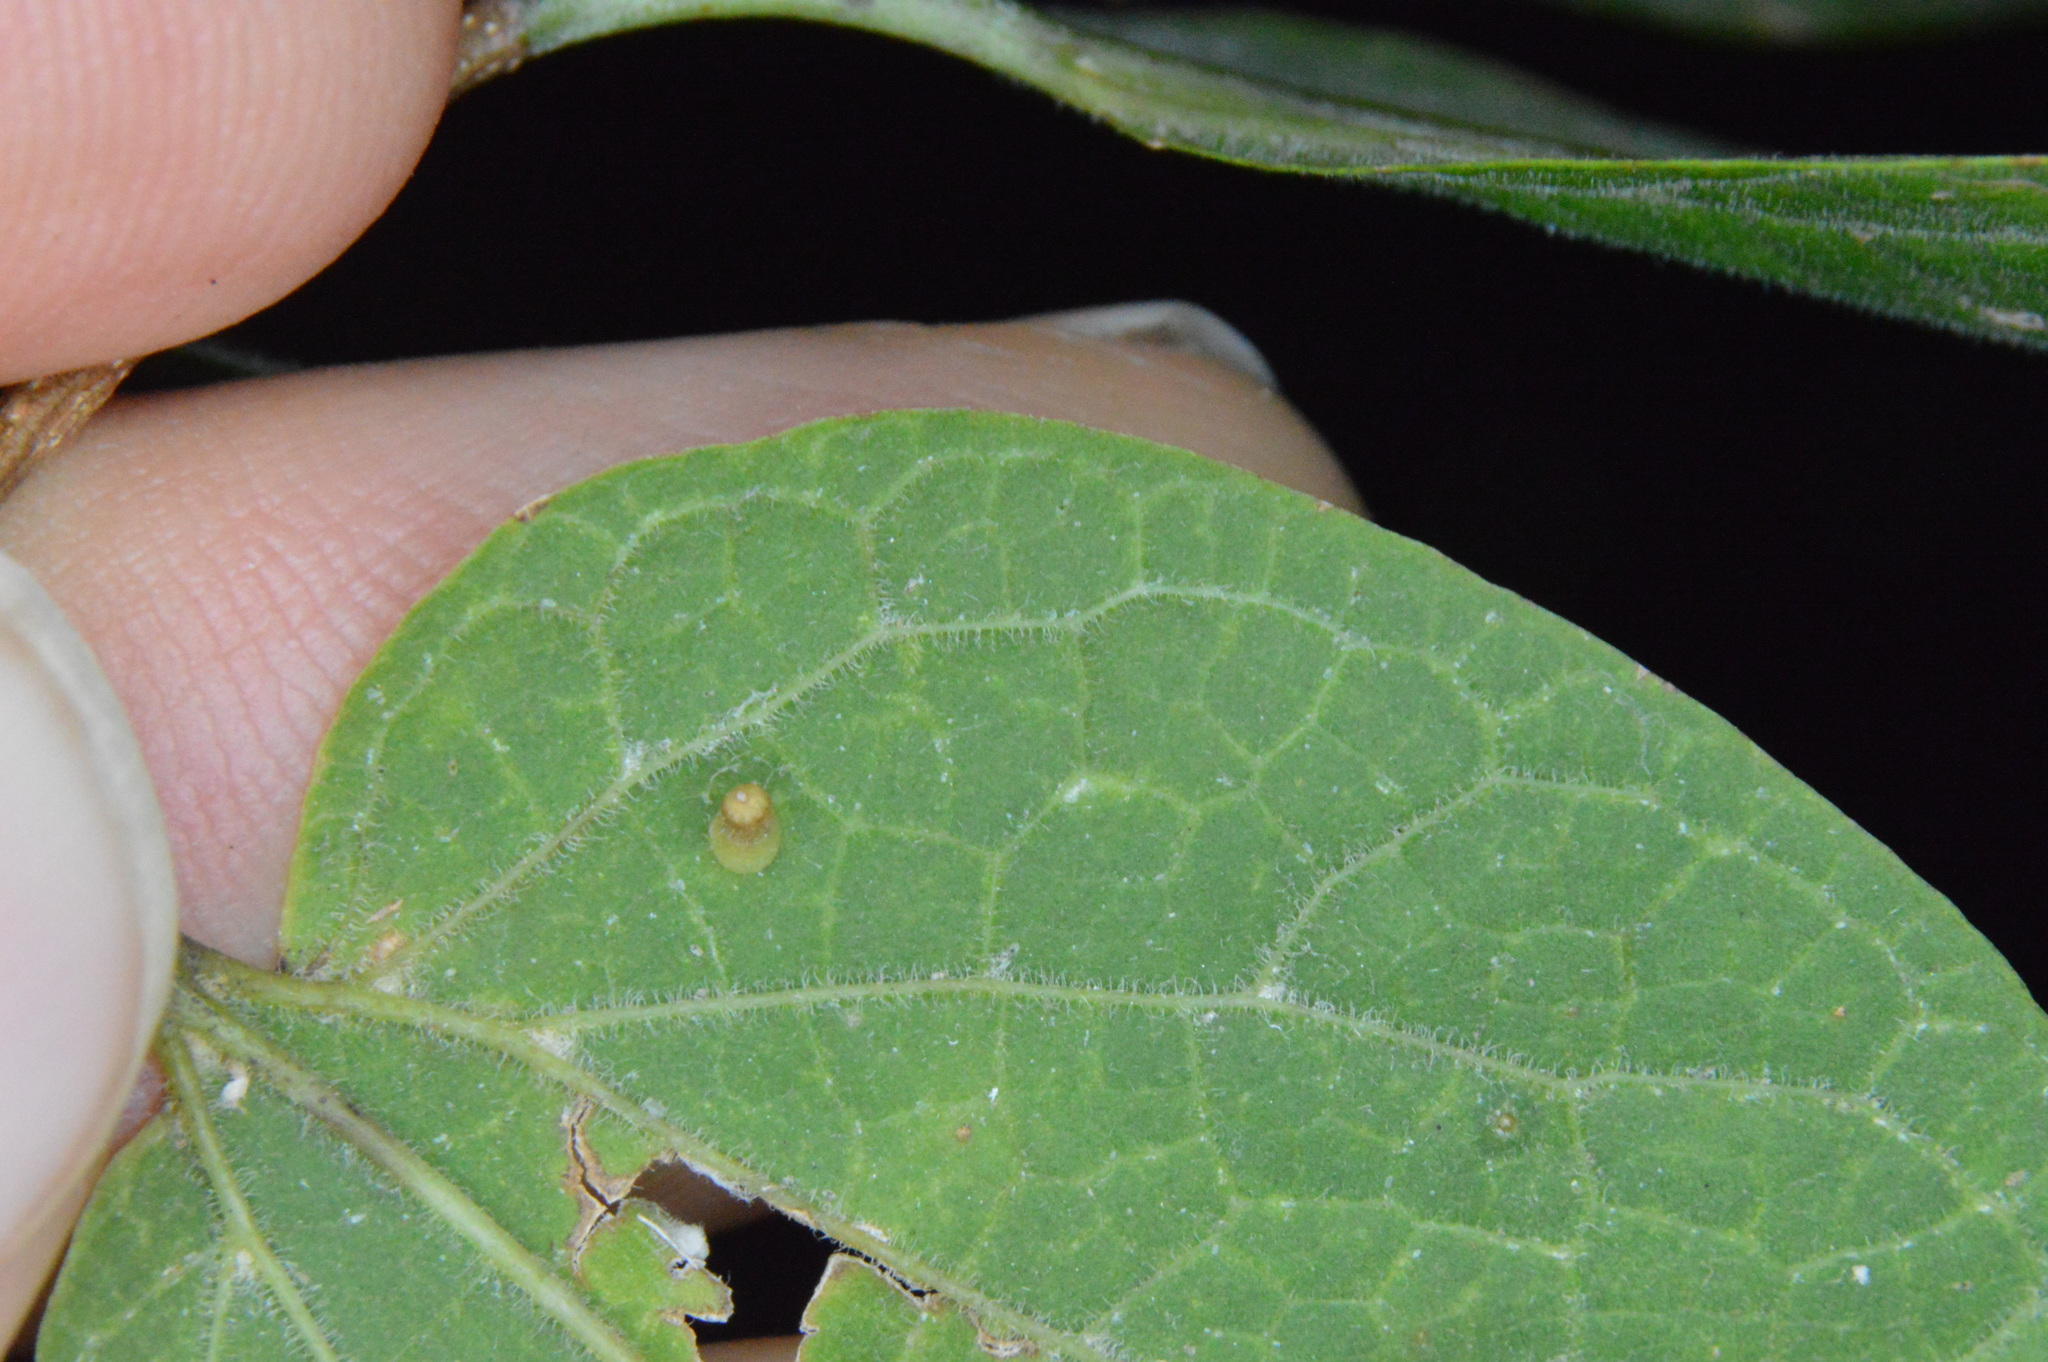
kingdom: Animalia
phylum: Arthropoda
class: Insecta
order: Diptera
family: Cecidomyiidae
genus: Celticecis
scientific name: Celticecis aciculata
